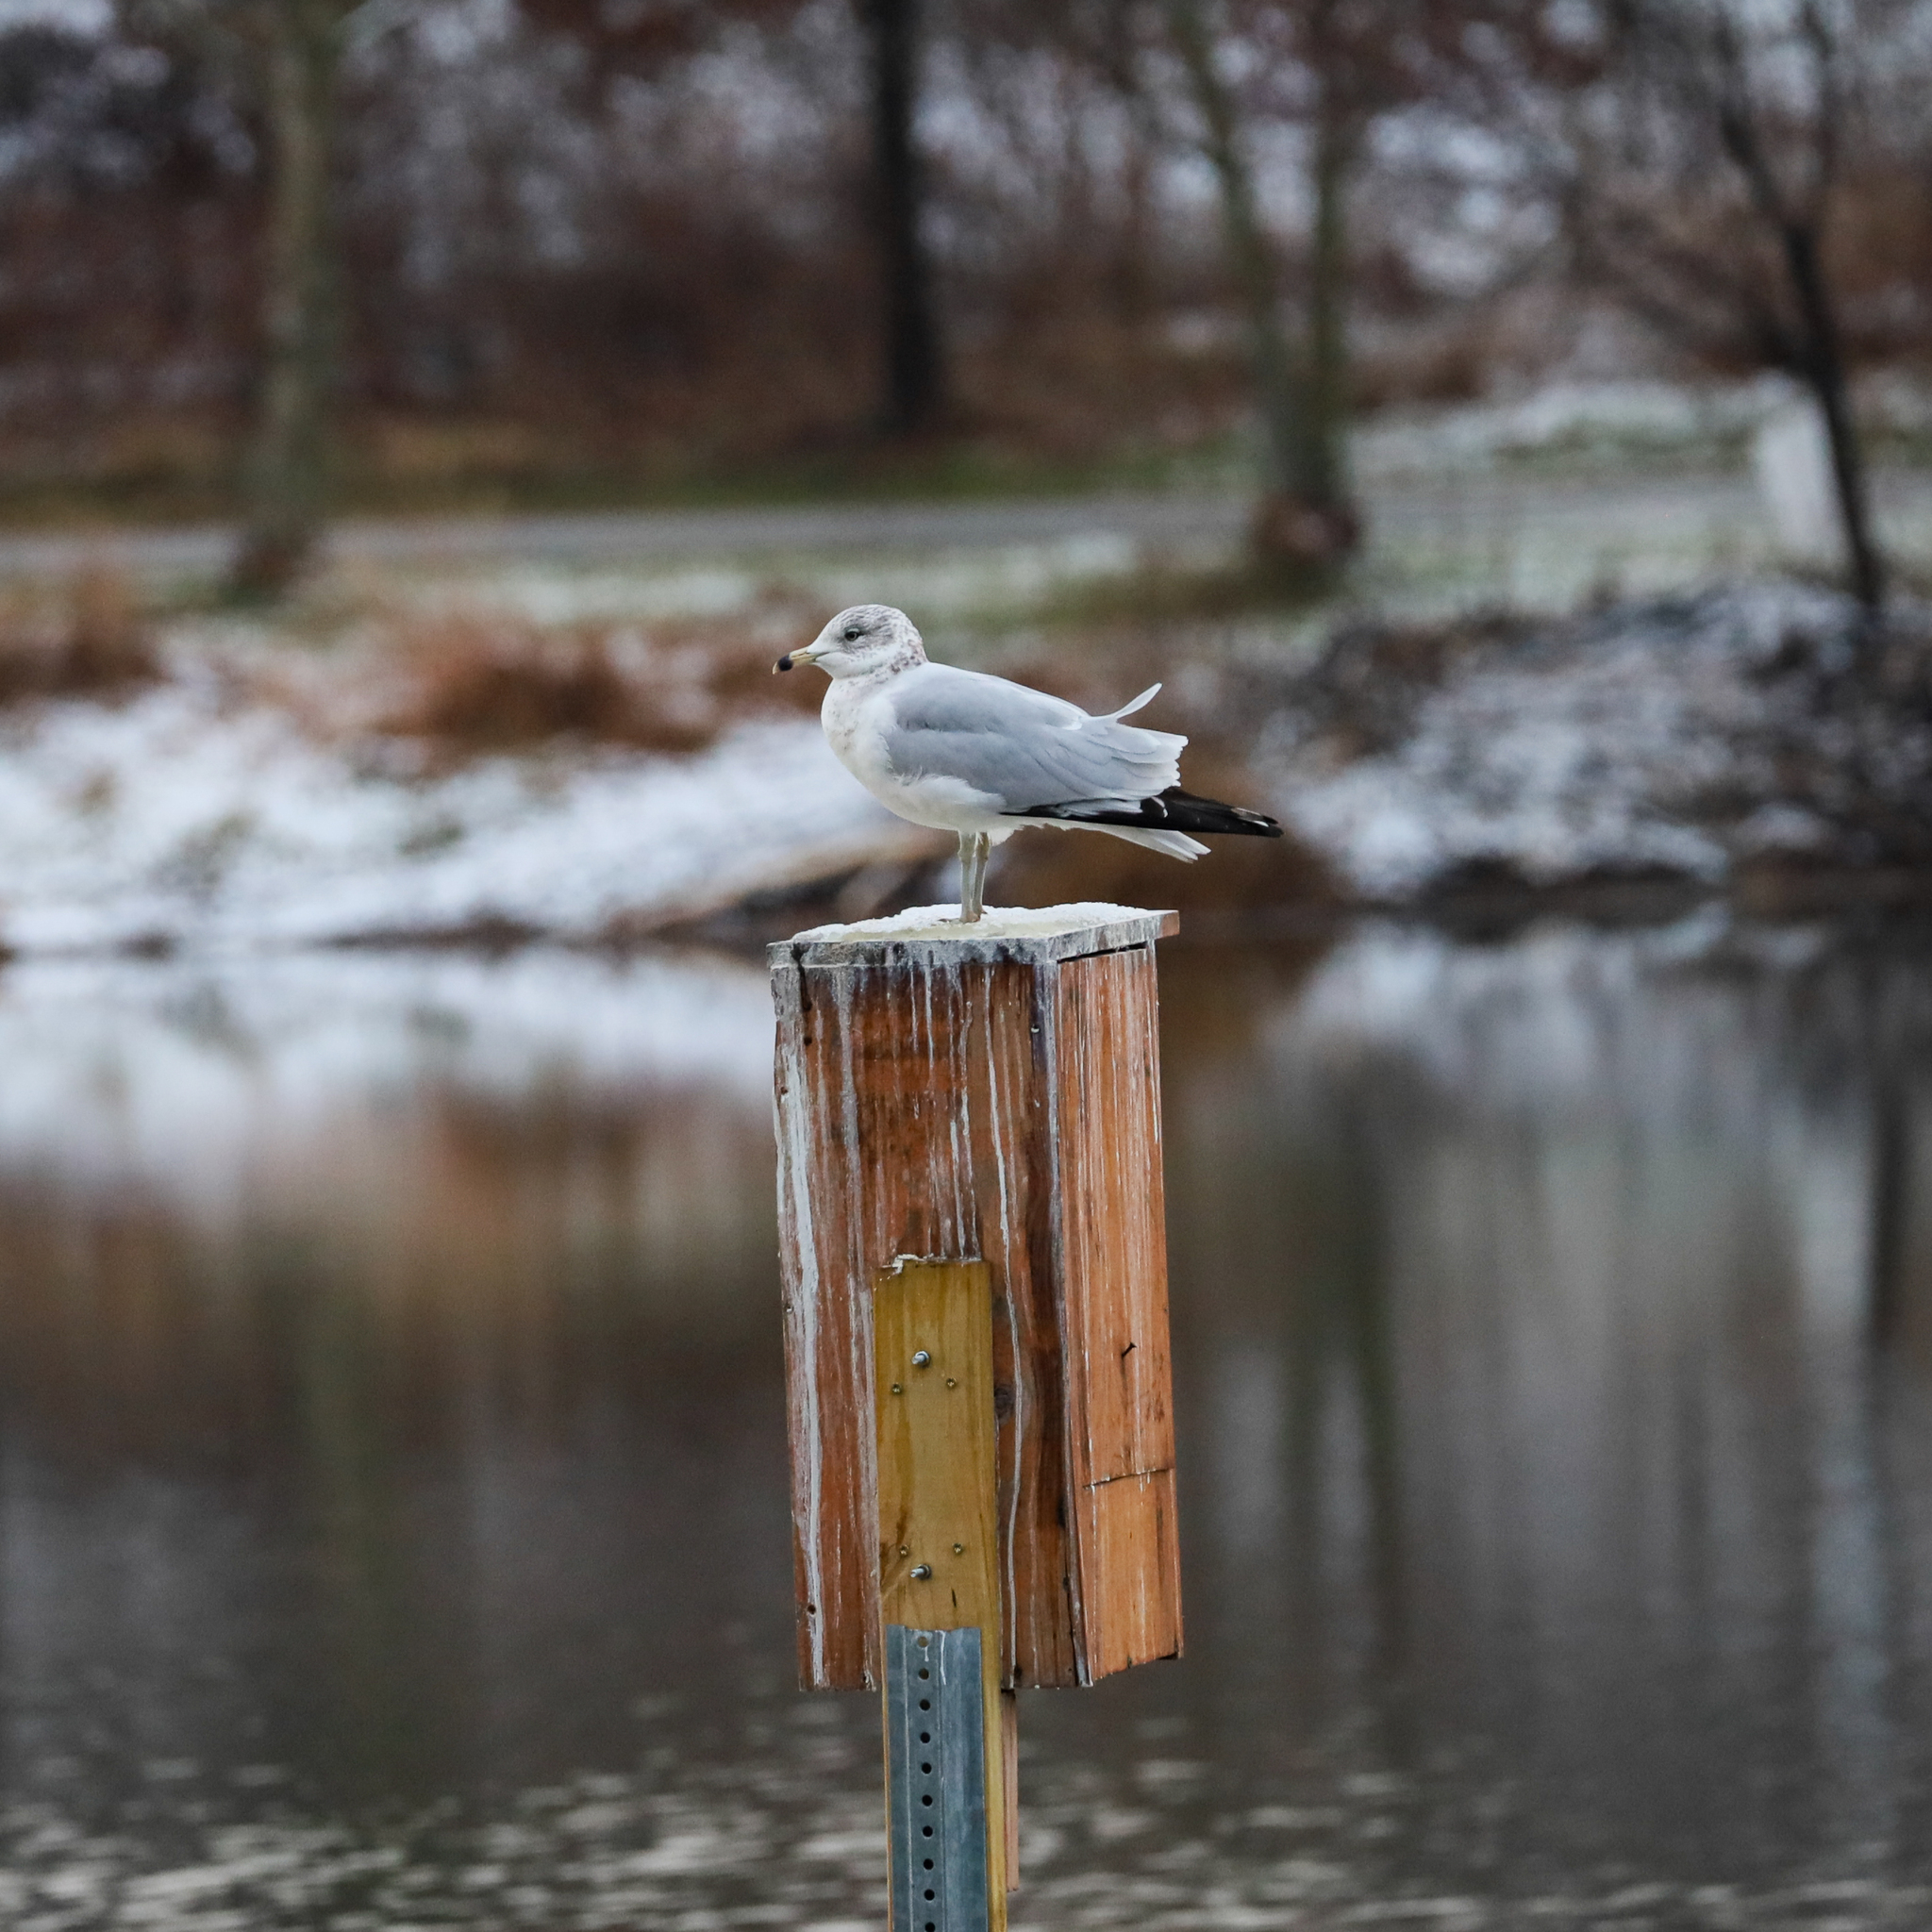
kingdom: Animalia
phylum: Chordata
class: Aves
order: Charadriiformes
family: Laridae
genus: Larus
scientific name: Larus delawarensis
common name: Ring-billed gull
